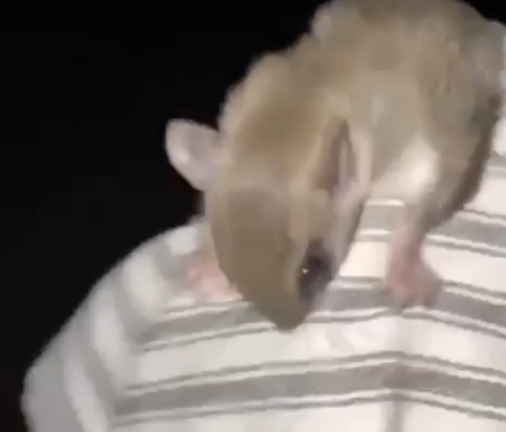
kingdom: Animalia
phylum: Chordata
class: Mammalia
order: Rodentia
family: Sciuridae
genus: Glaucomys
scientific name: Glaucomys volans
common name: Southern flying squirrel
